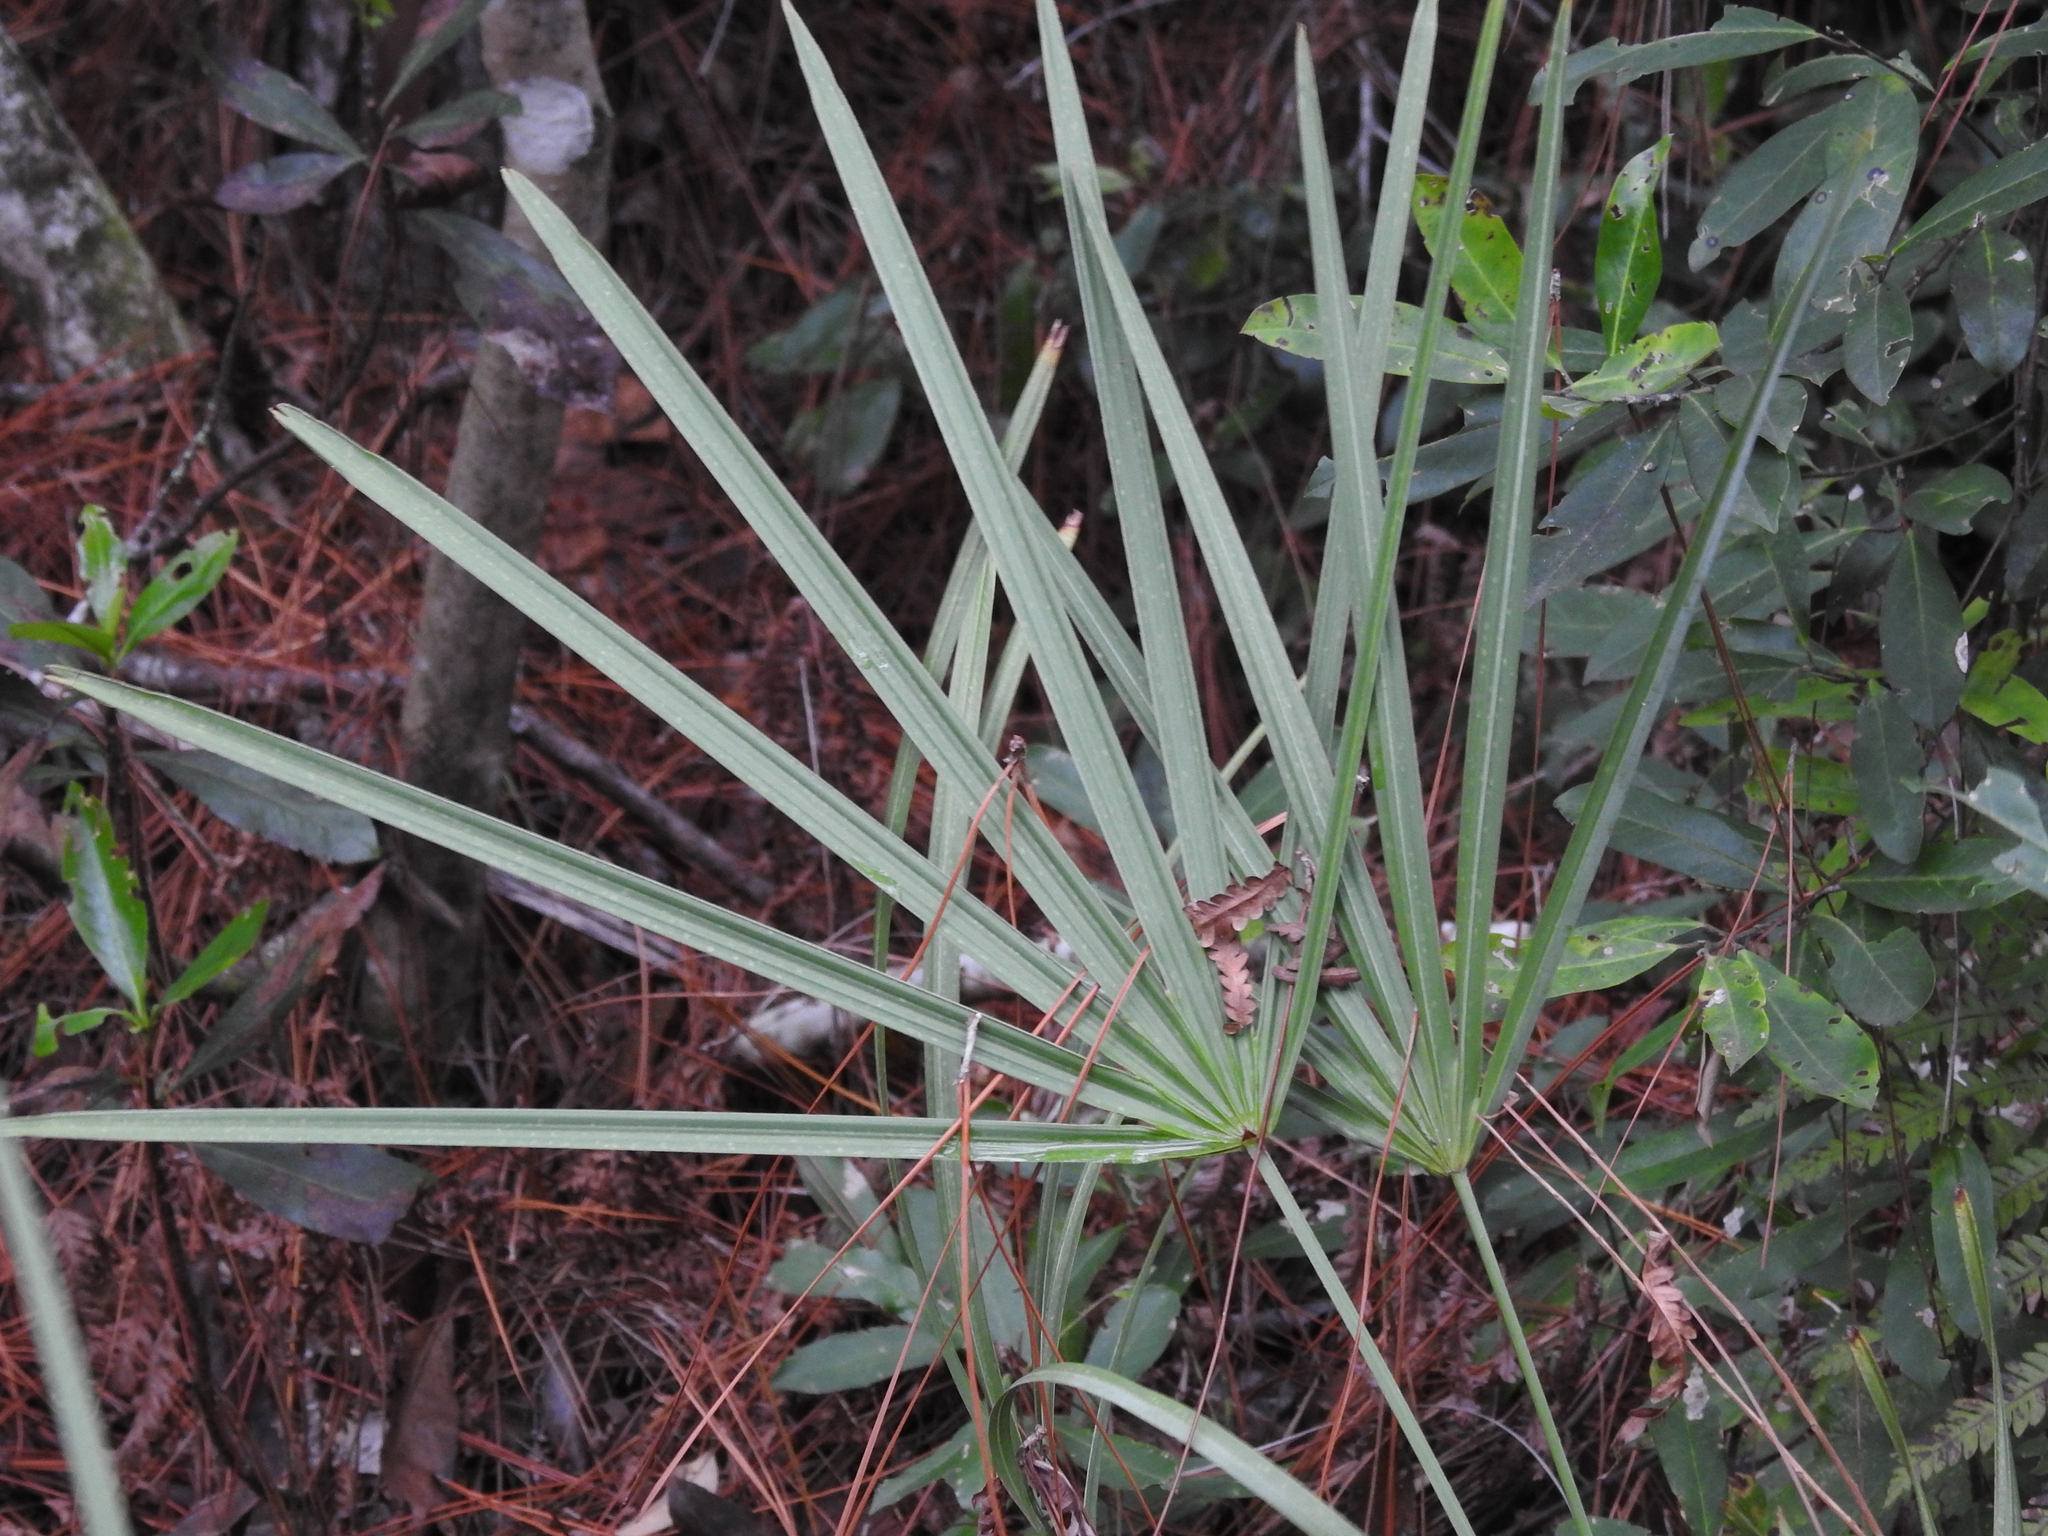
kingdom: Plantae
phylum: Tracheophyta
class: Liliopsida
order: Arecales
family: Arecaceae
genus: Serenoa
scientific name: Serenoa repens
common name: Saw-palmetto
